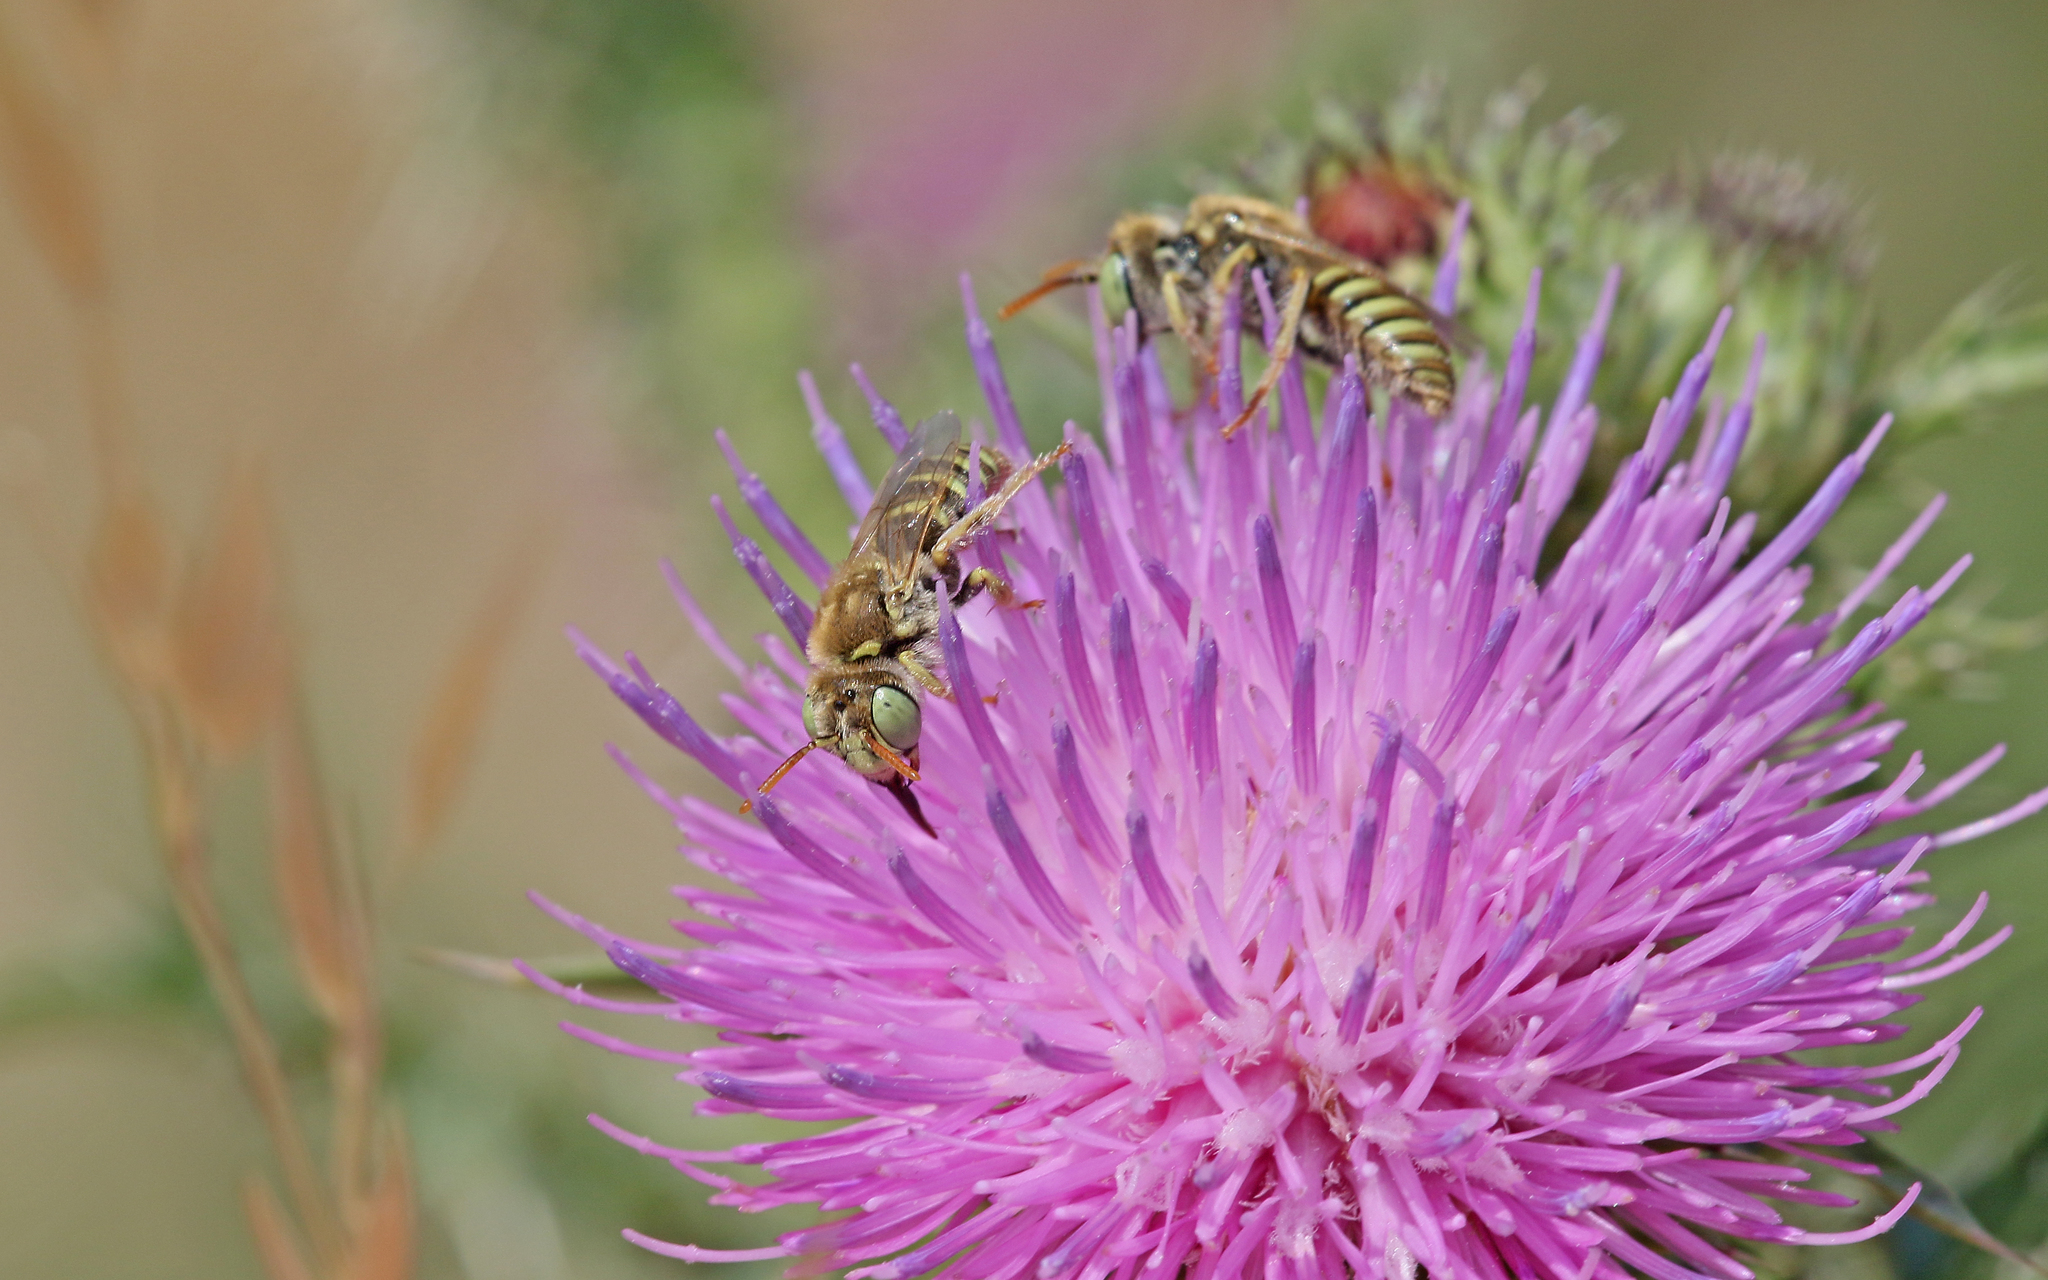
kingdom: Animalia
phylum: Arthropoda
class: Insecta
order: Hymenoptera
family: Andrenidae
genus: Camptopoeum
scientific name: Camptopoeum friesei
